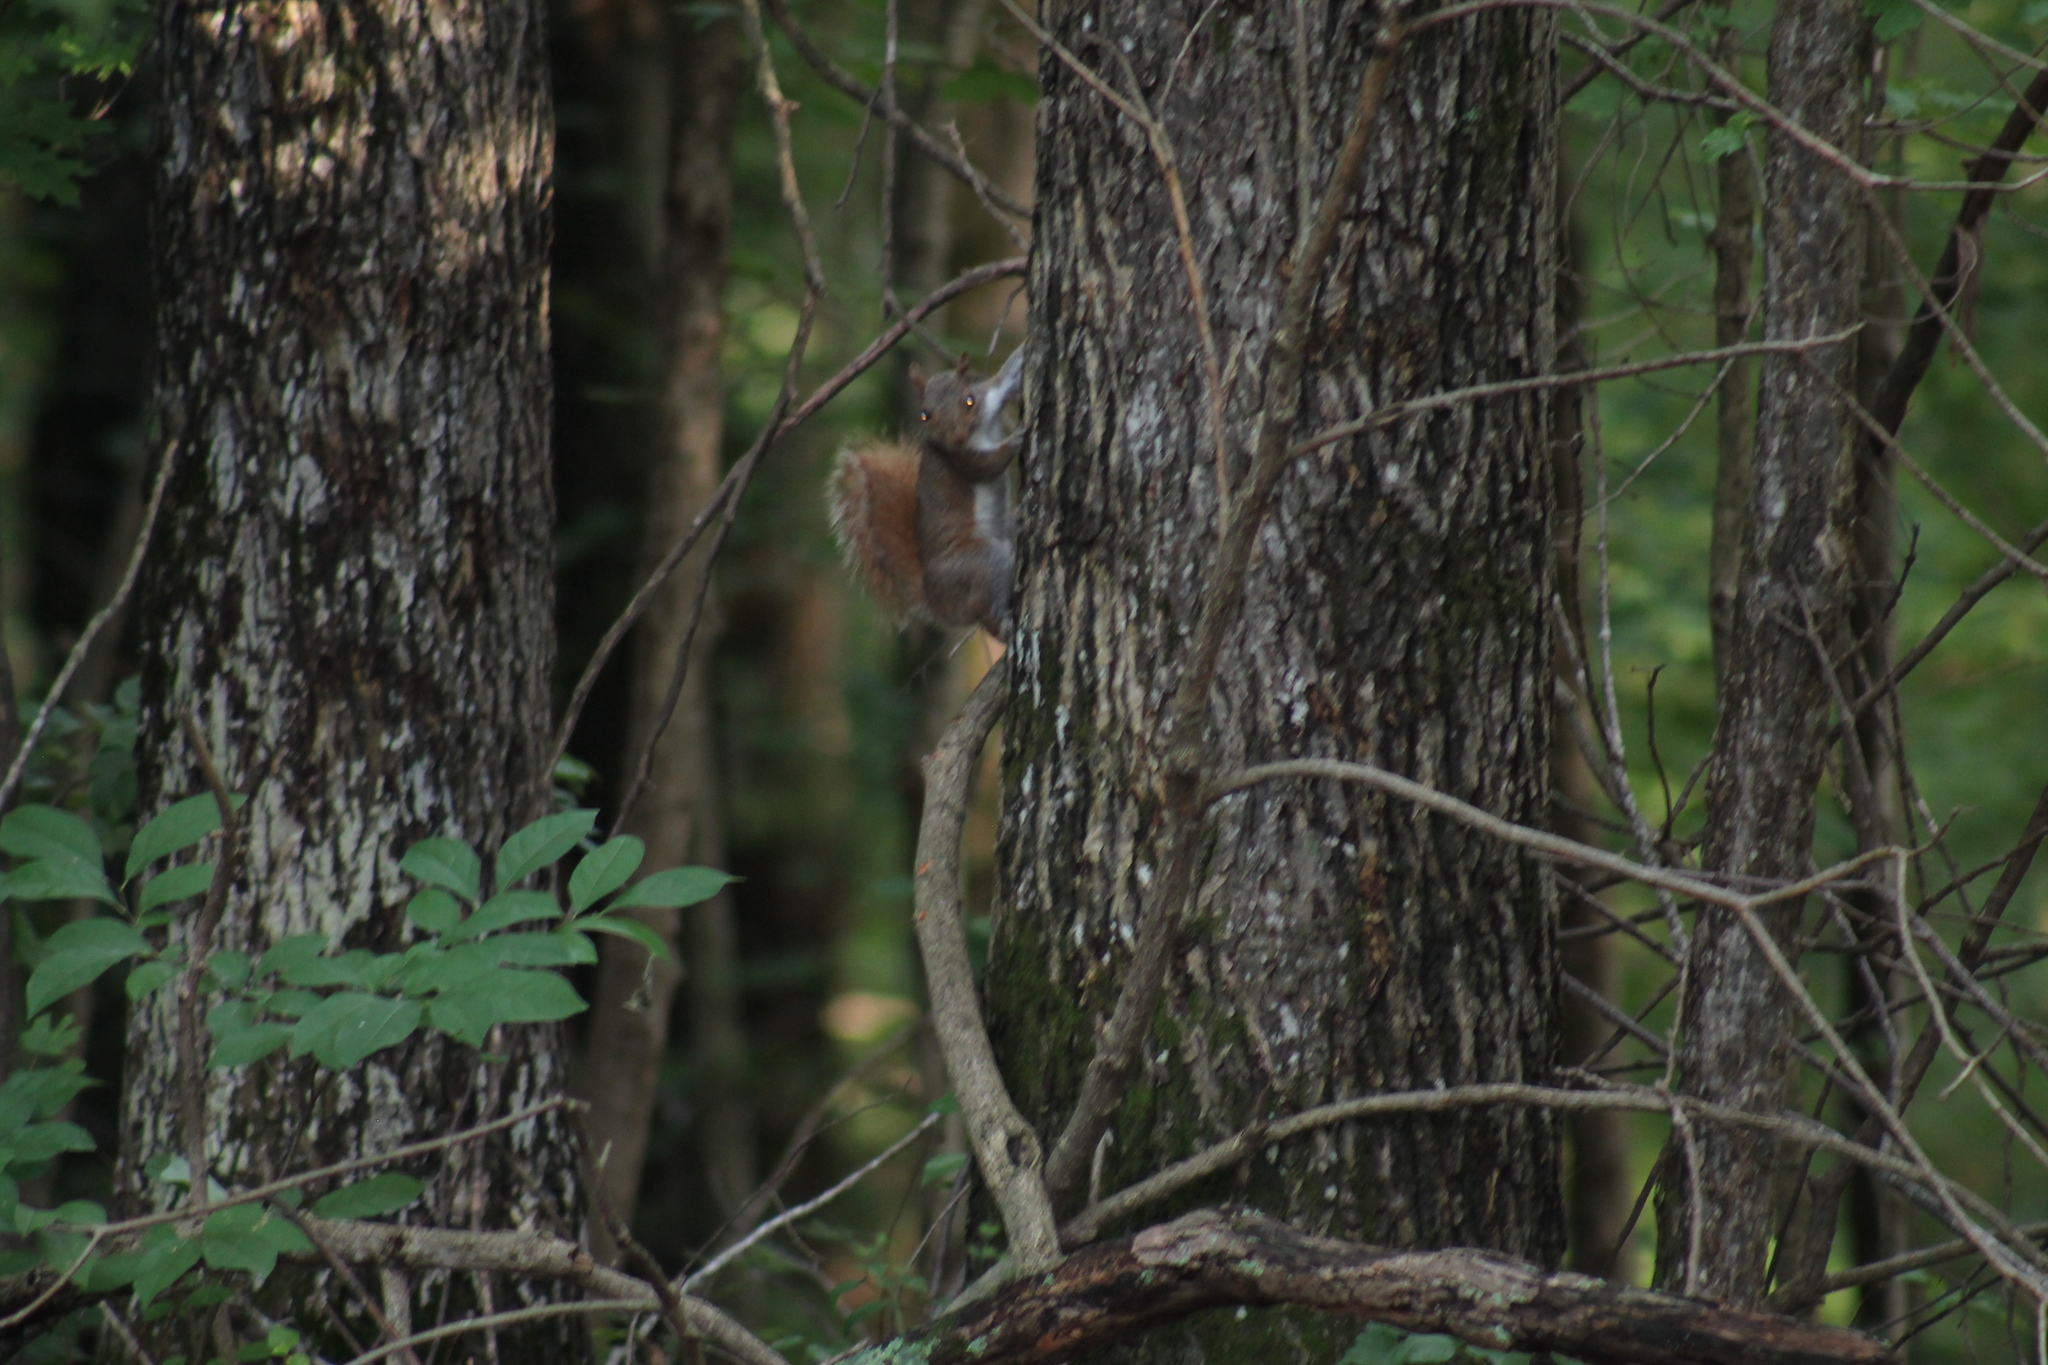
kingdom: Animalia
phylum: Chordata
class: Mammalia
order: Rodentia
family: Sciuridae
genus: Sciurus
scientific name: Sciurus carolinensis
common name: Eastern gray squirrel
